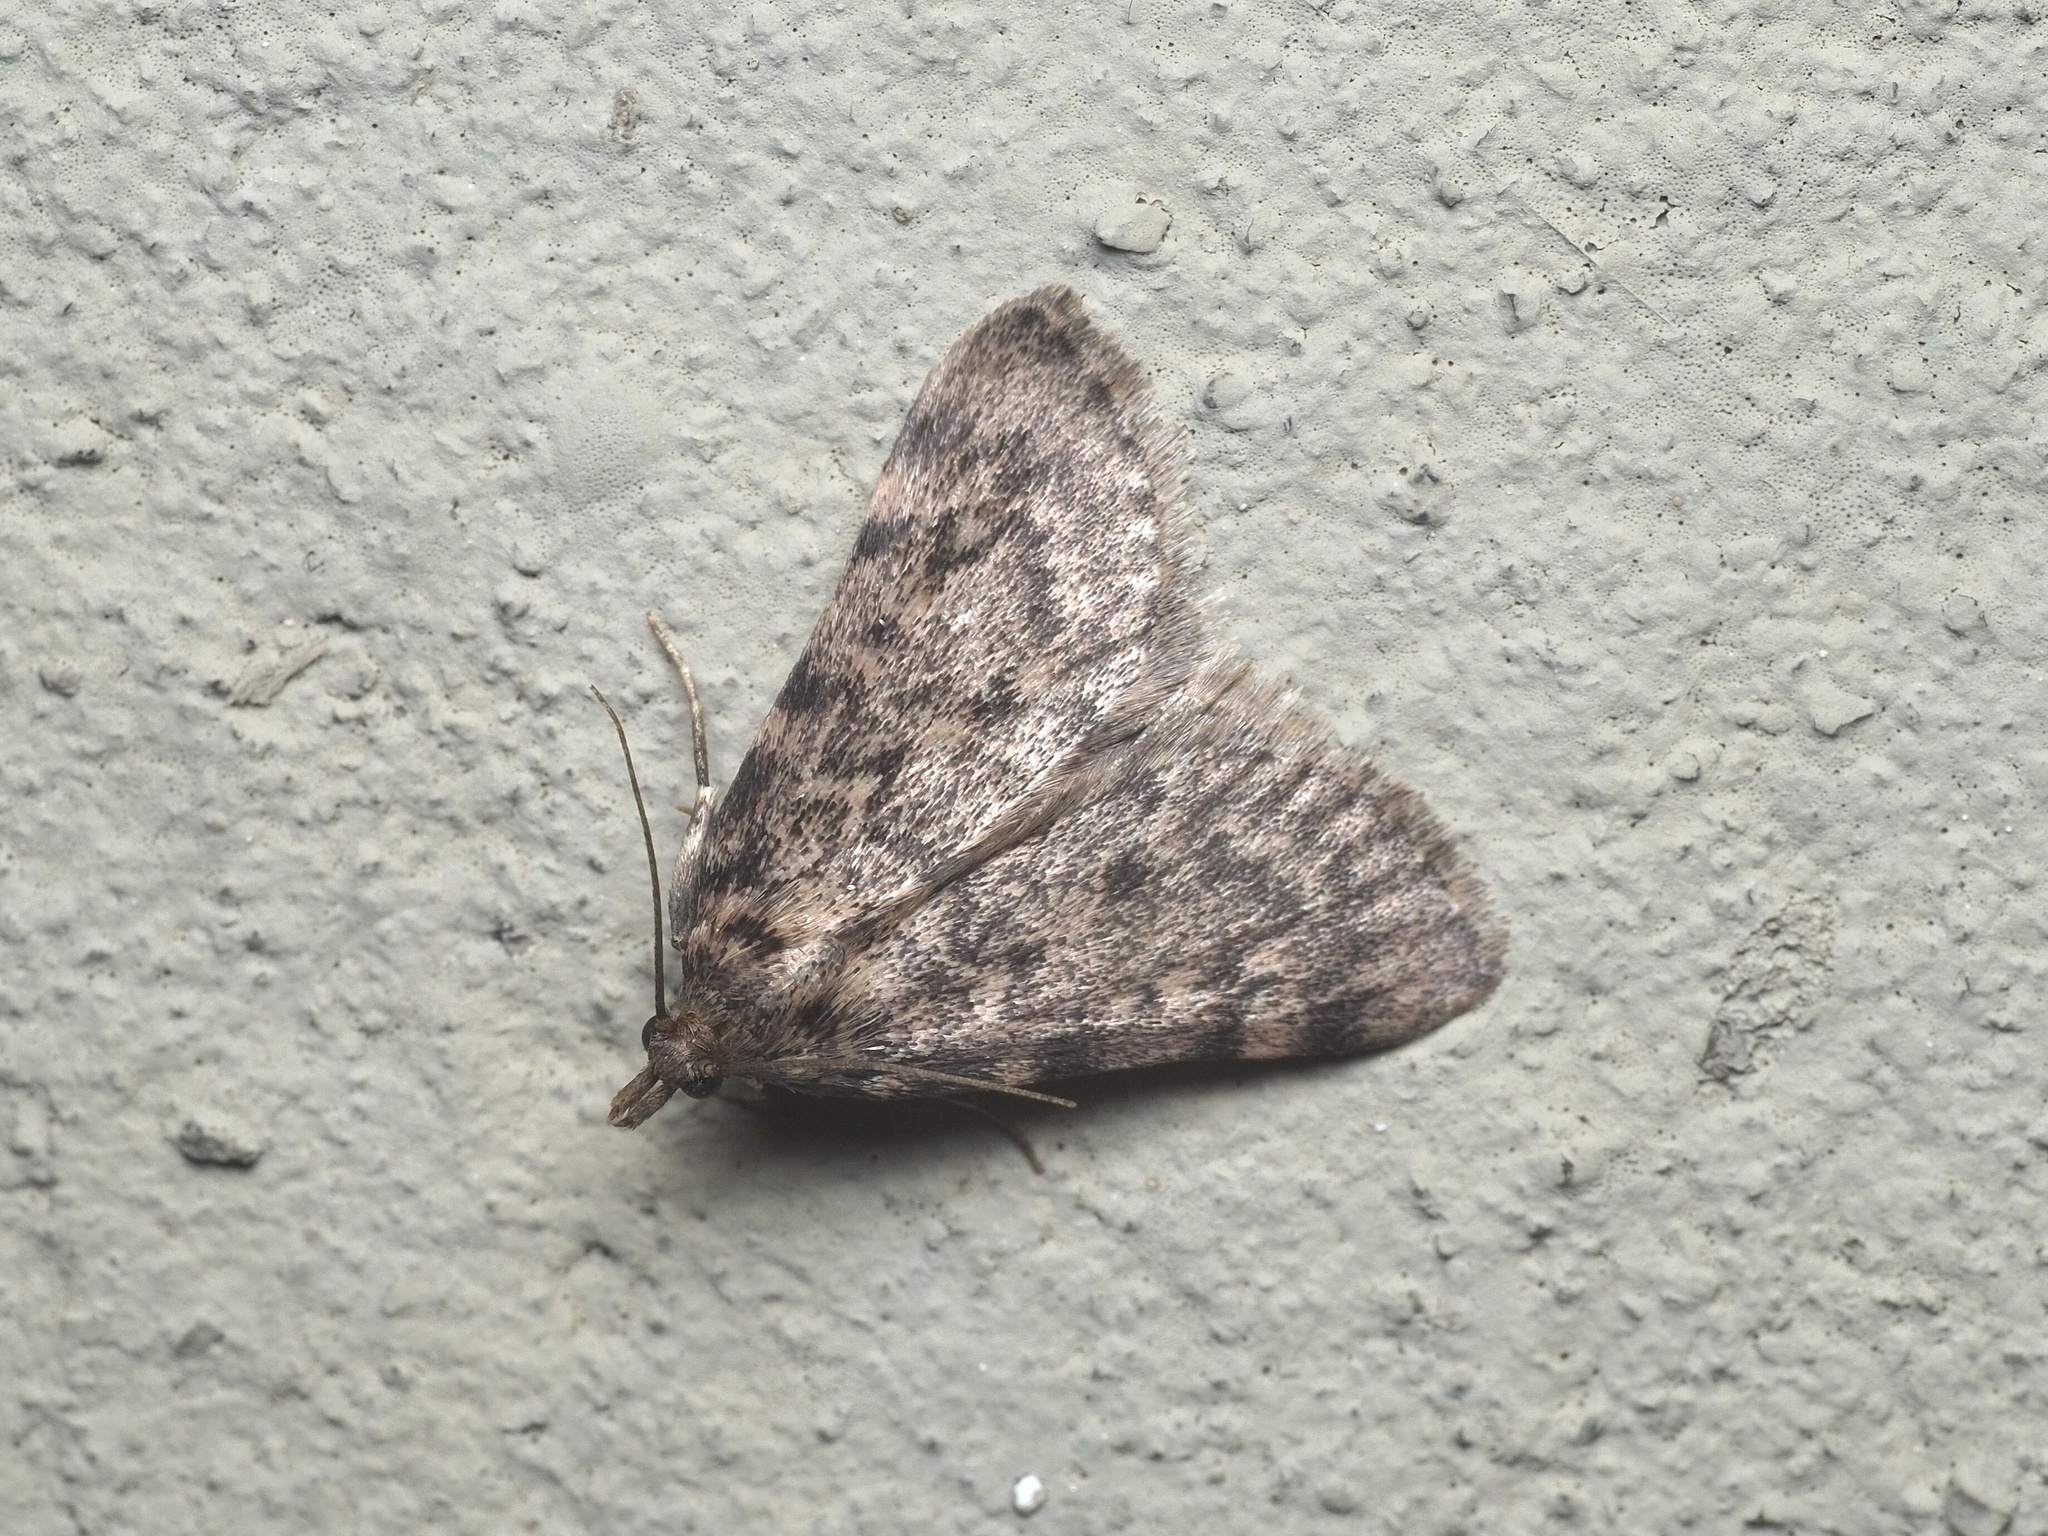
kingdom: Animalia
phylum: Arthropoda
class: Insecta
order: Lepidoptera
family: Pyralidae
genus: Aglossa
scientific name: Aglossa pinguinalis
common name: Large tabby
